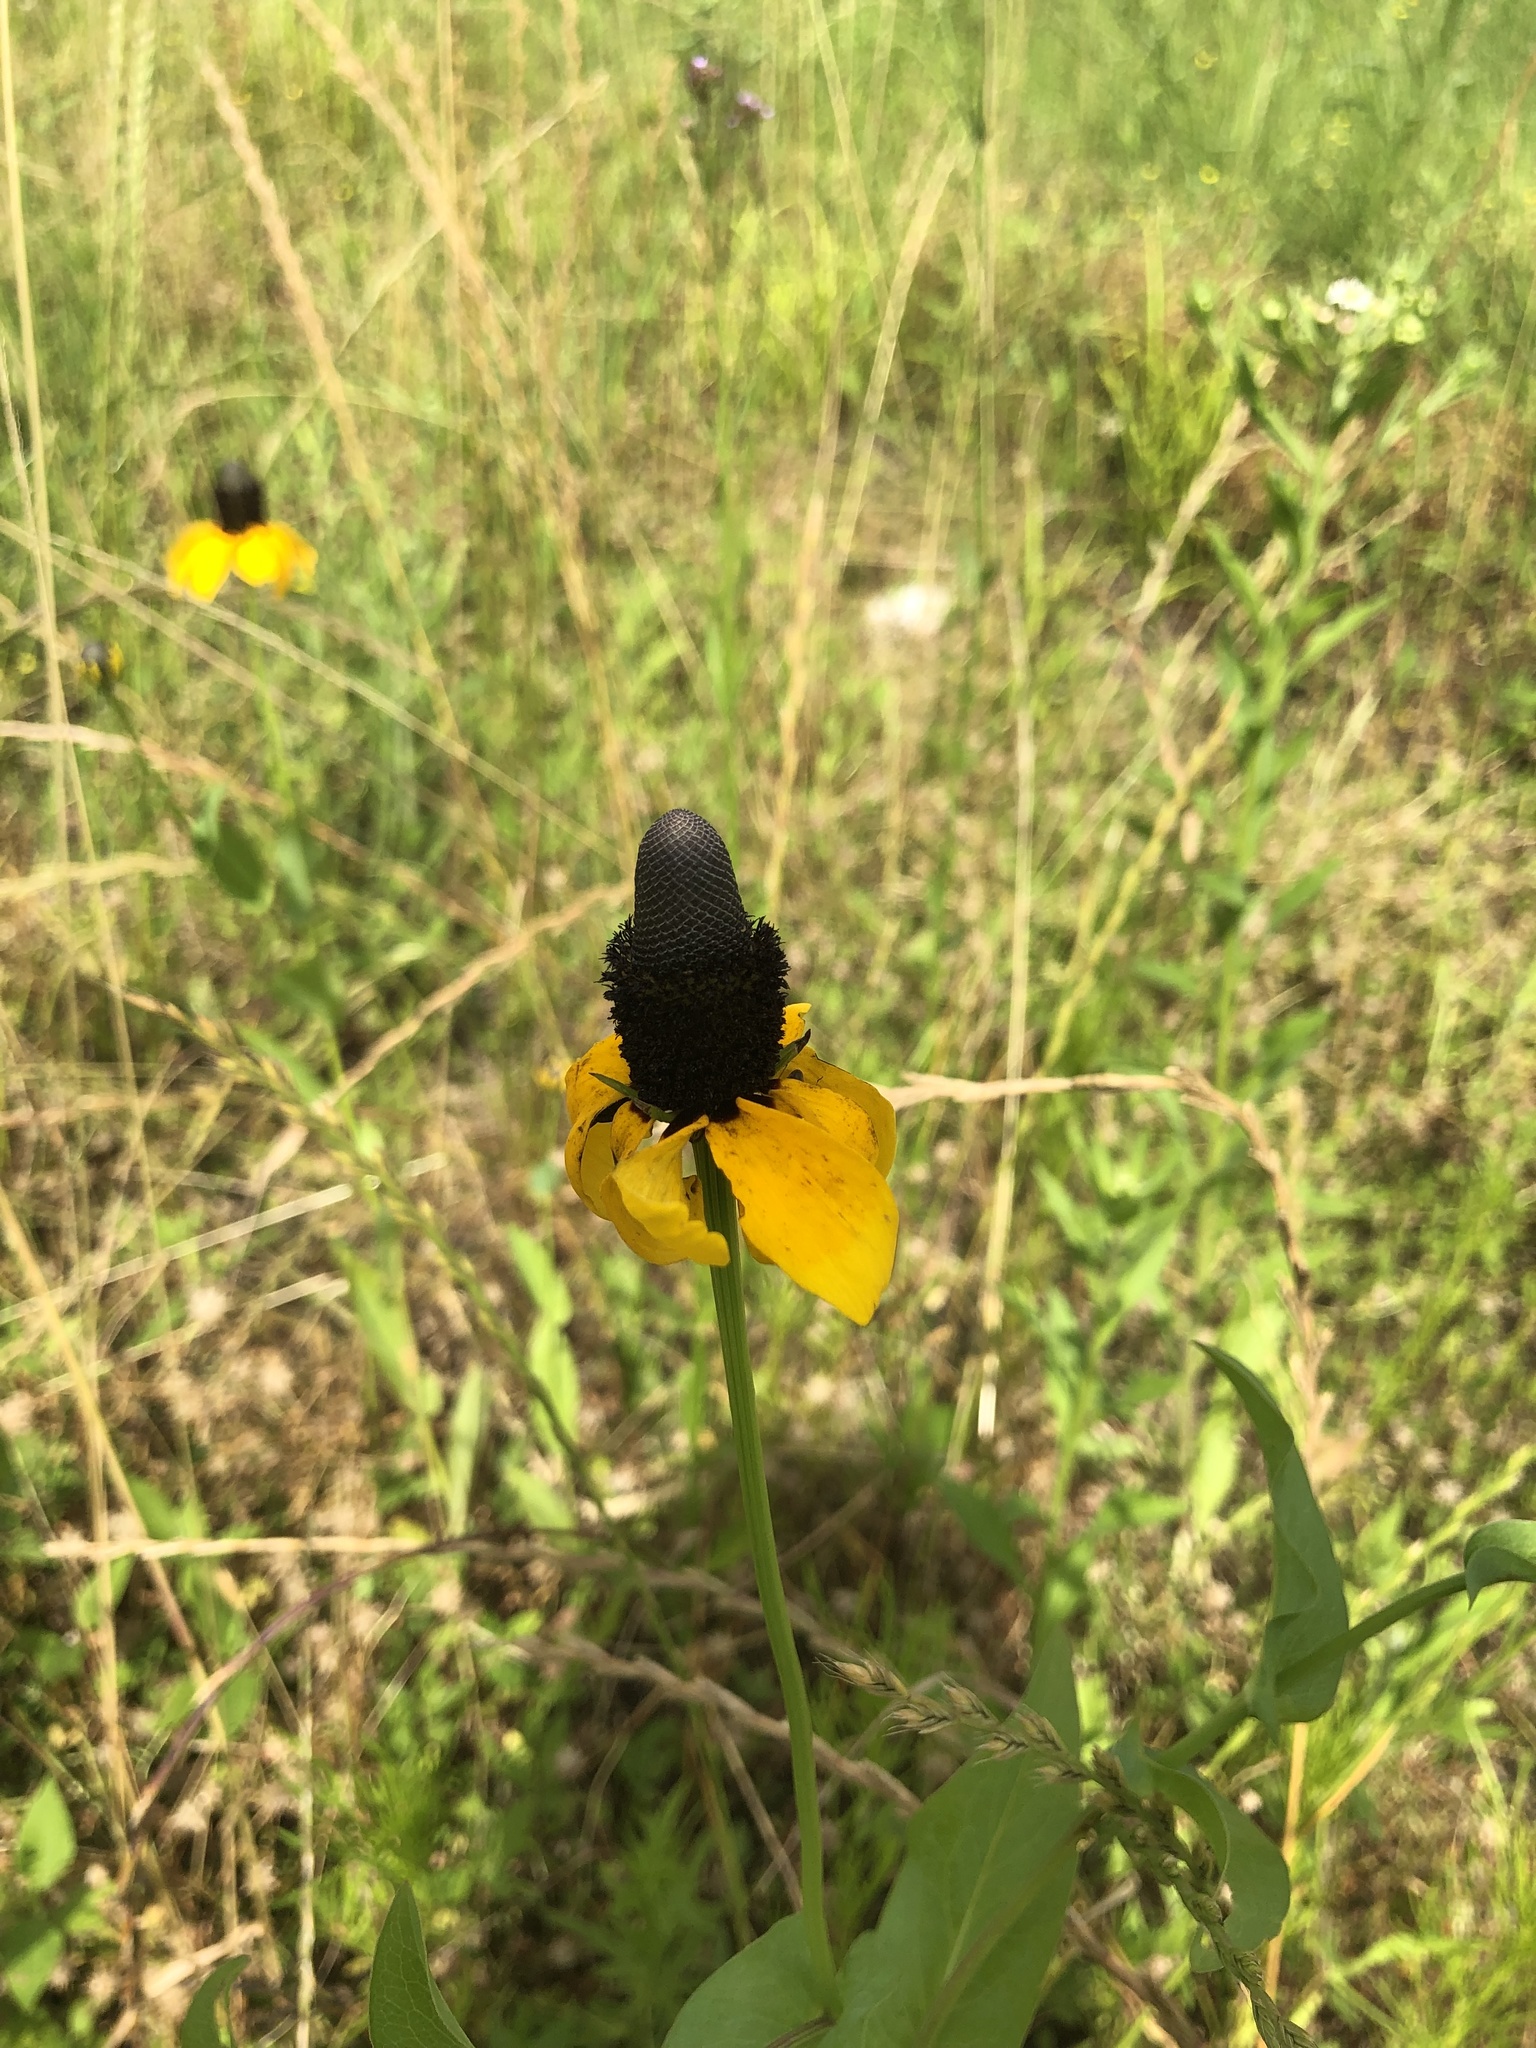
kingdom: Plantae
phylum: Tracheophyta
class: Magnoliopsida
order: Asterales
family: Asteraceae
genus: Rudbeckia
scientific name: Rudbeckia amplexicaulis
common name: Clasping-leaf coneflower
